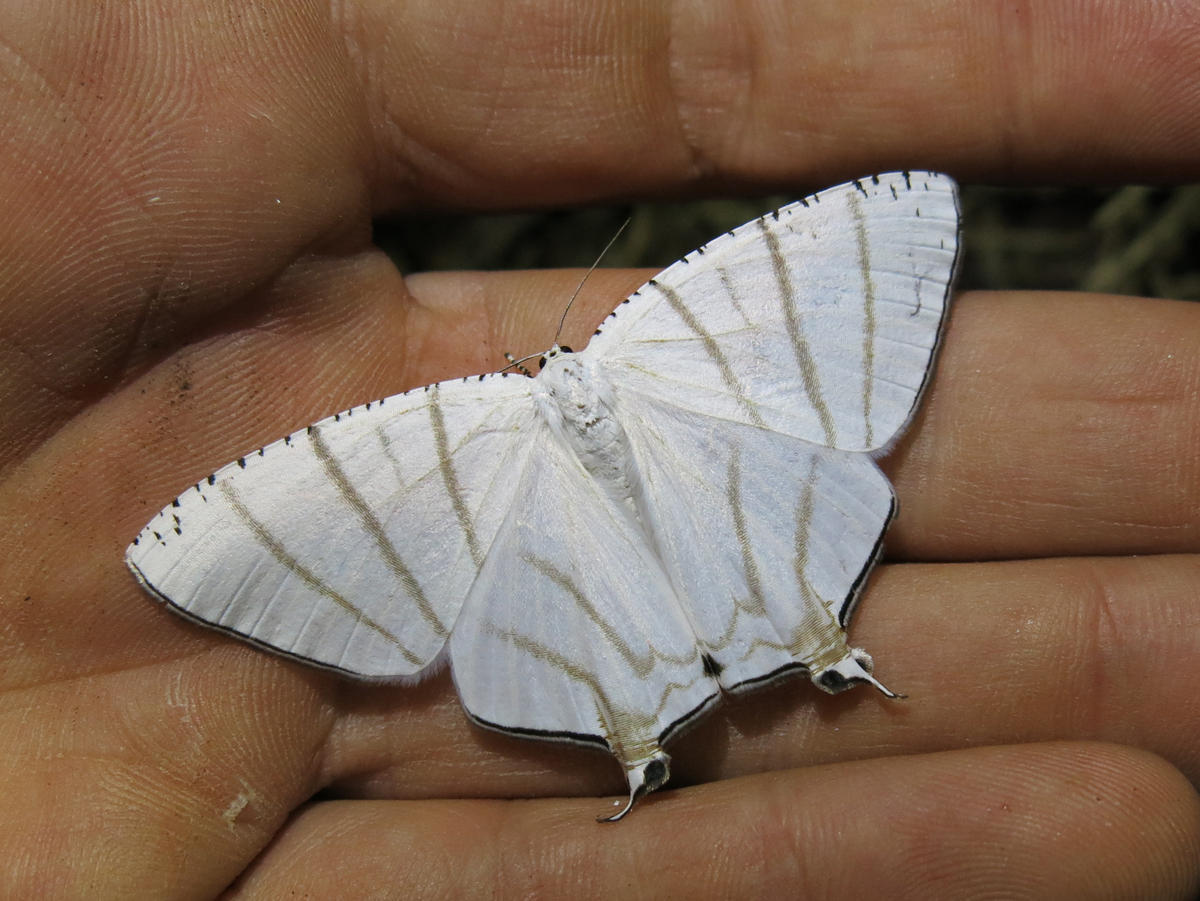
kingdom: Animalia
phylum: Arthropoda
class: Insecta
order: Lepidoptera
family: Uraniidae
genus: Urapteroides
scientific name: Urapteroides recurvata
